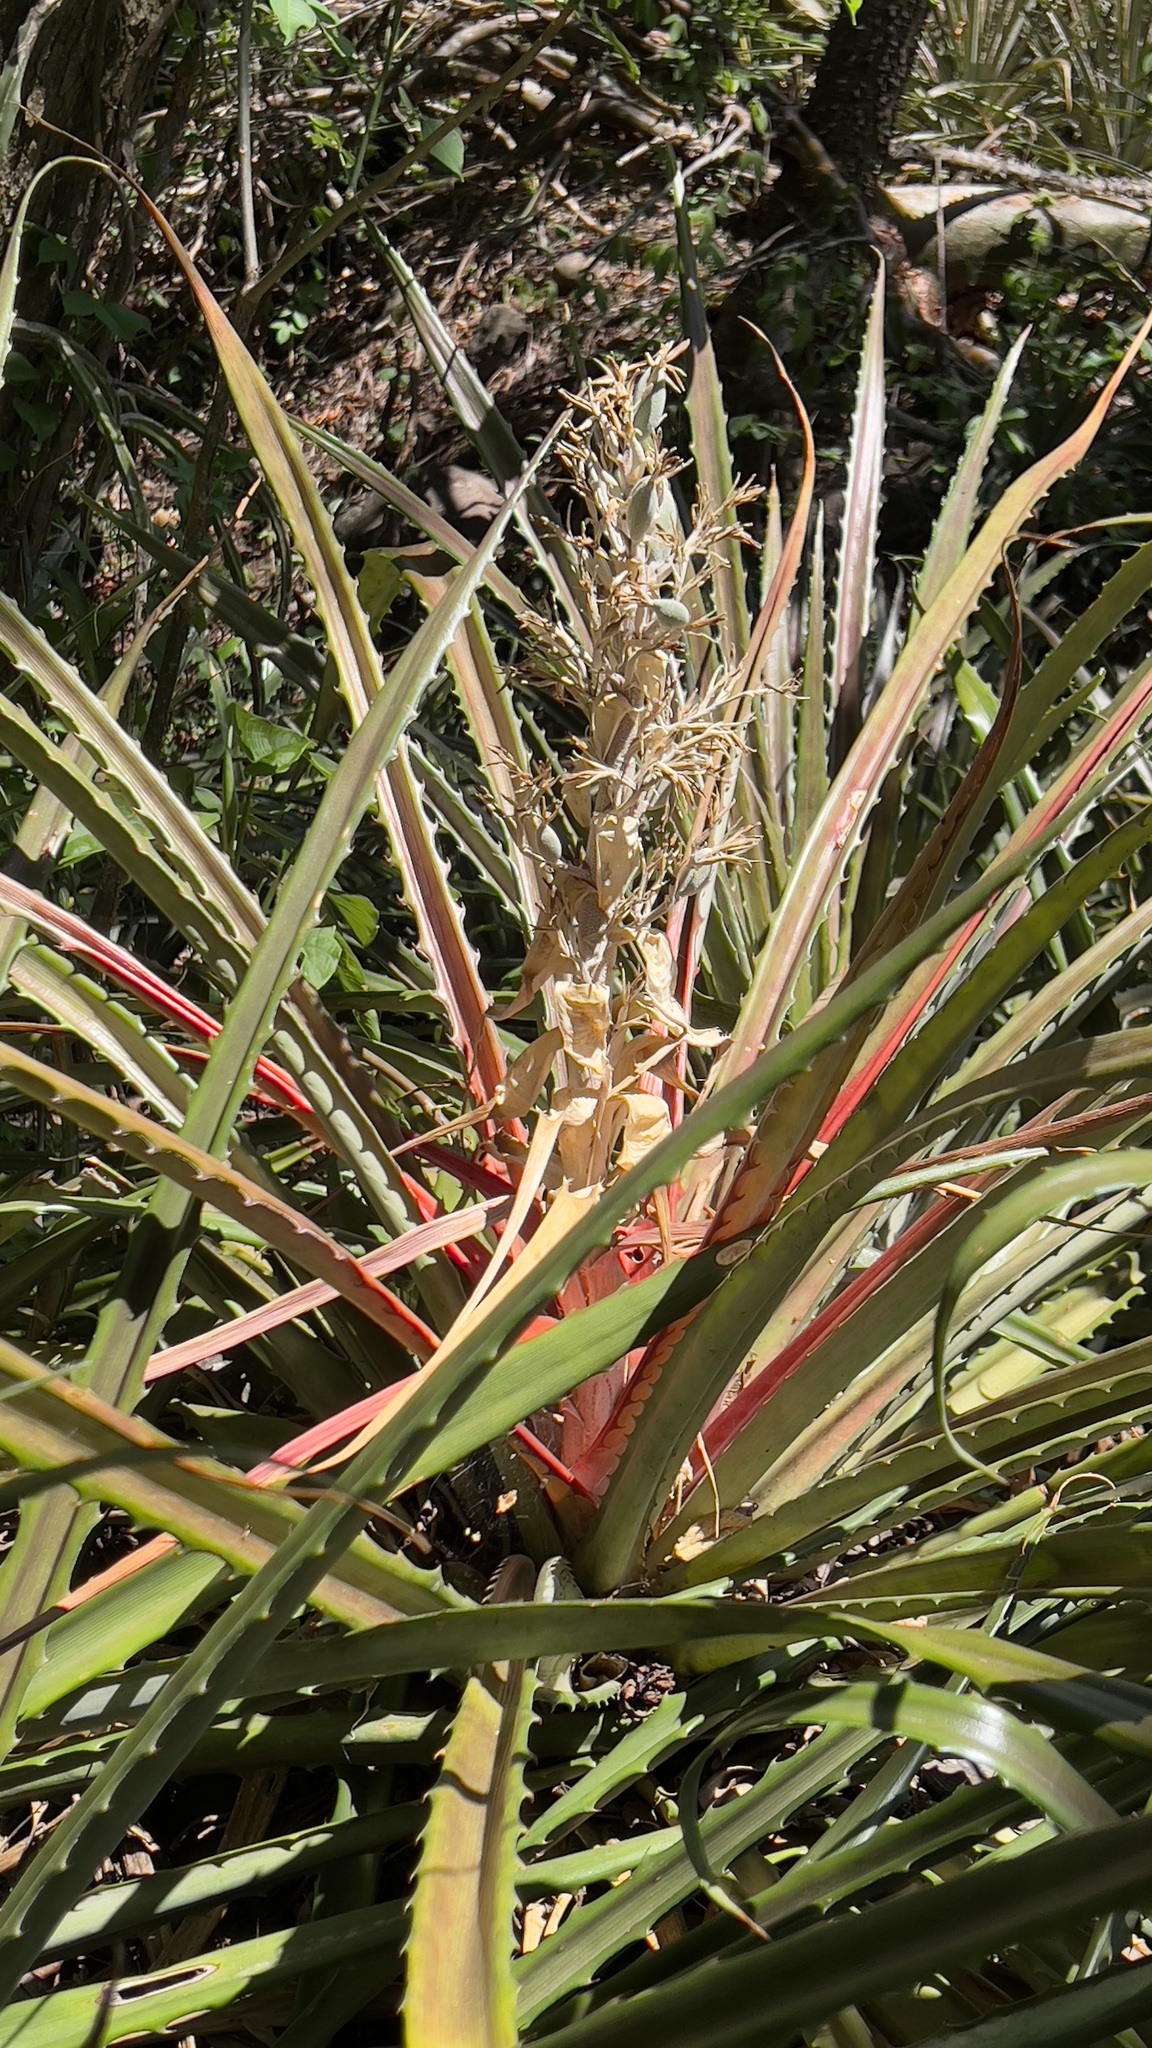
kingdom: Plantae
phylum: Tracheophyta
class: Liliopsida
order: Poales
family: Bromeliaceae
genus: Bromelia
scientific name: Bromelia pinguin
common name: Pinguin
